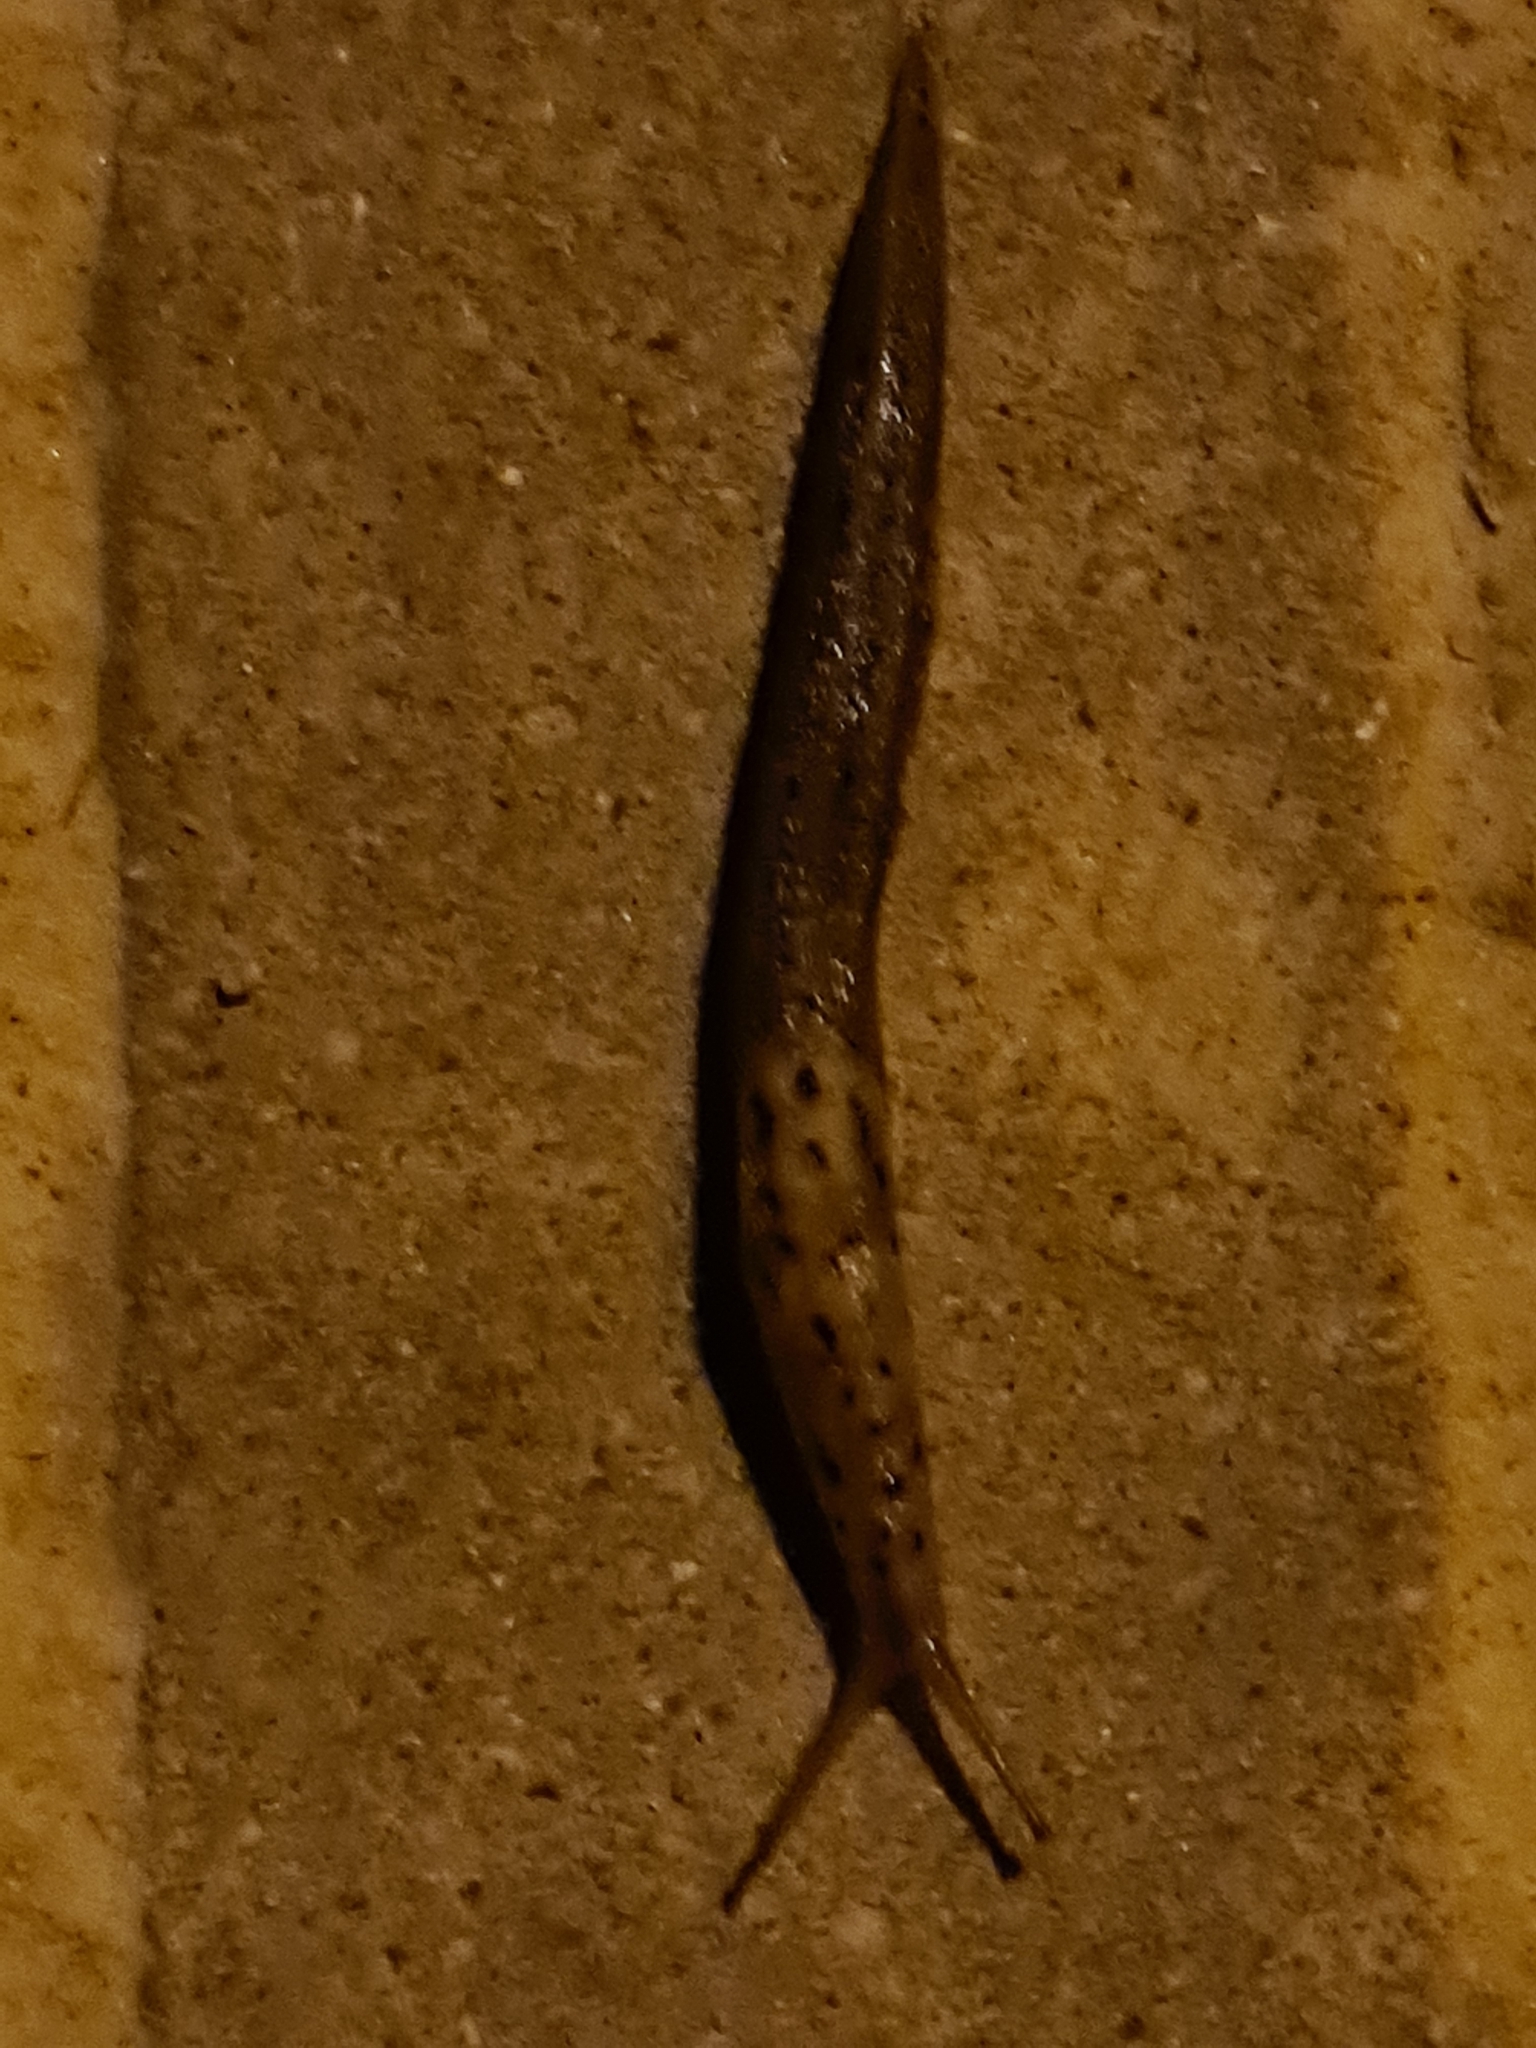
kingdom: Animalia
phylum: Mollusca
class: Gastropoda
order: Stylommatophora
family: Limacidae
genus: Limax
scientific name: Limax maximus
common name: Great grey slug
